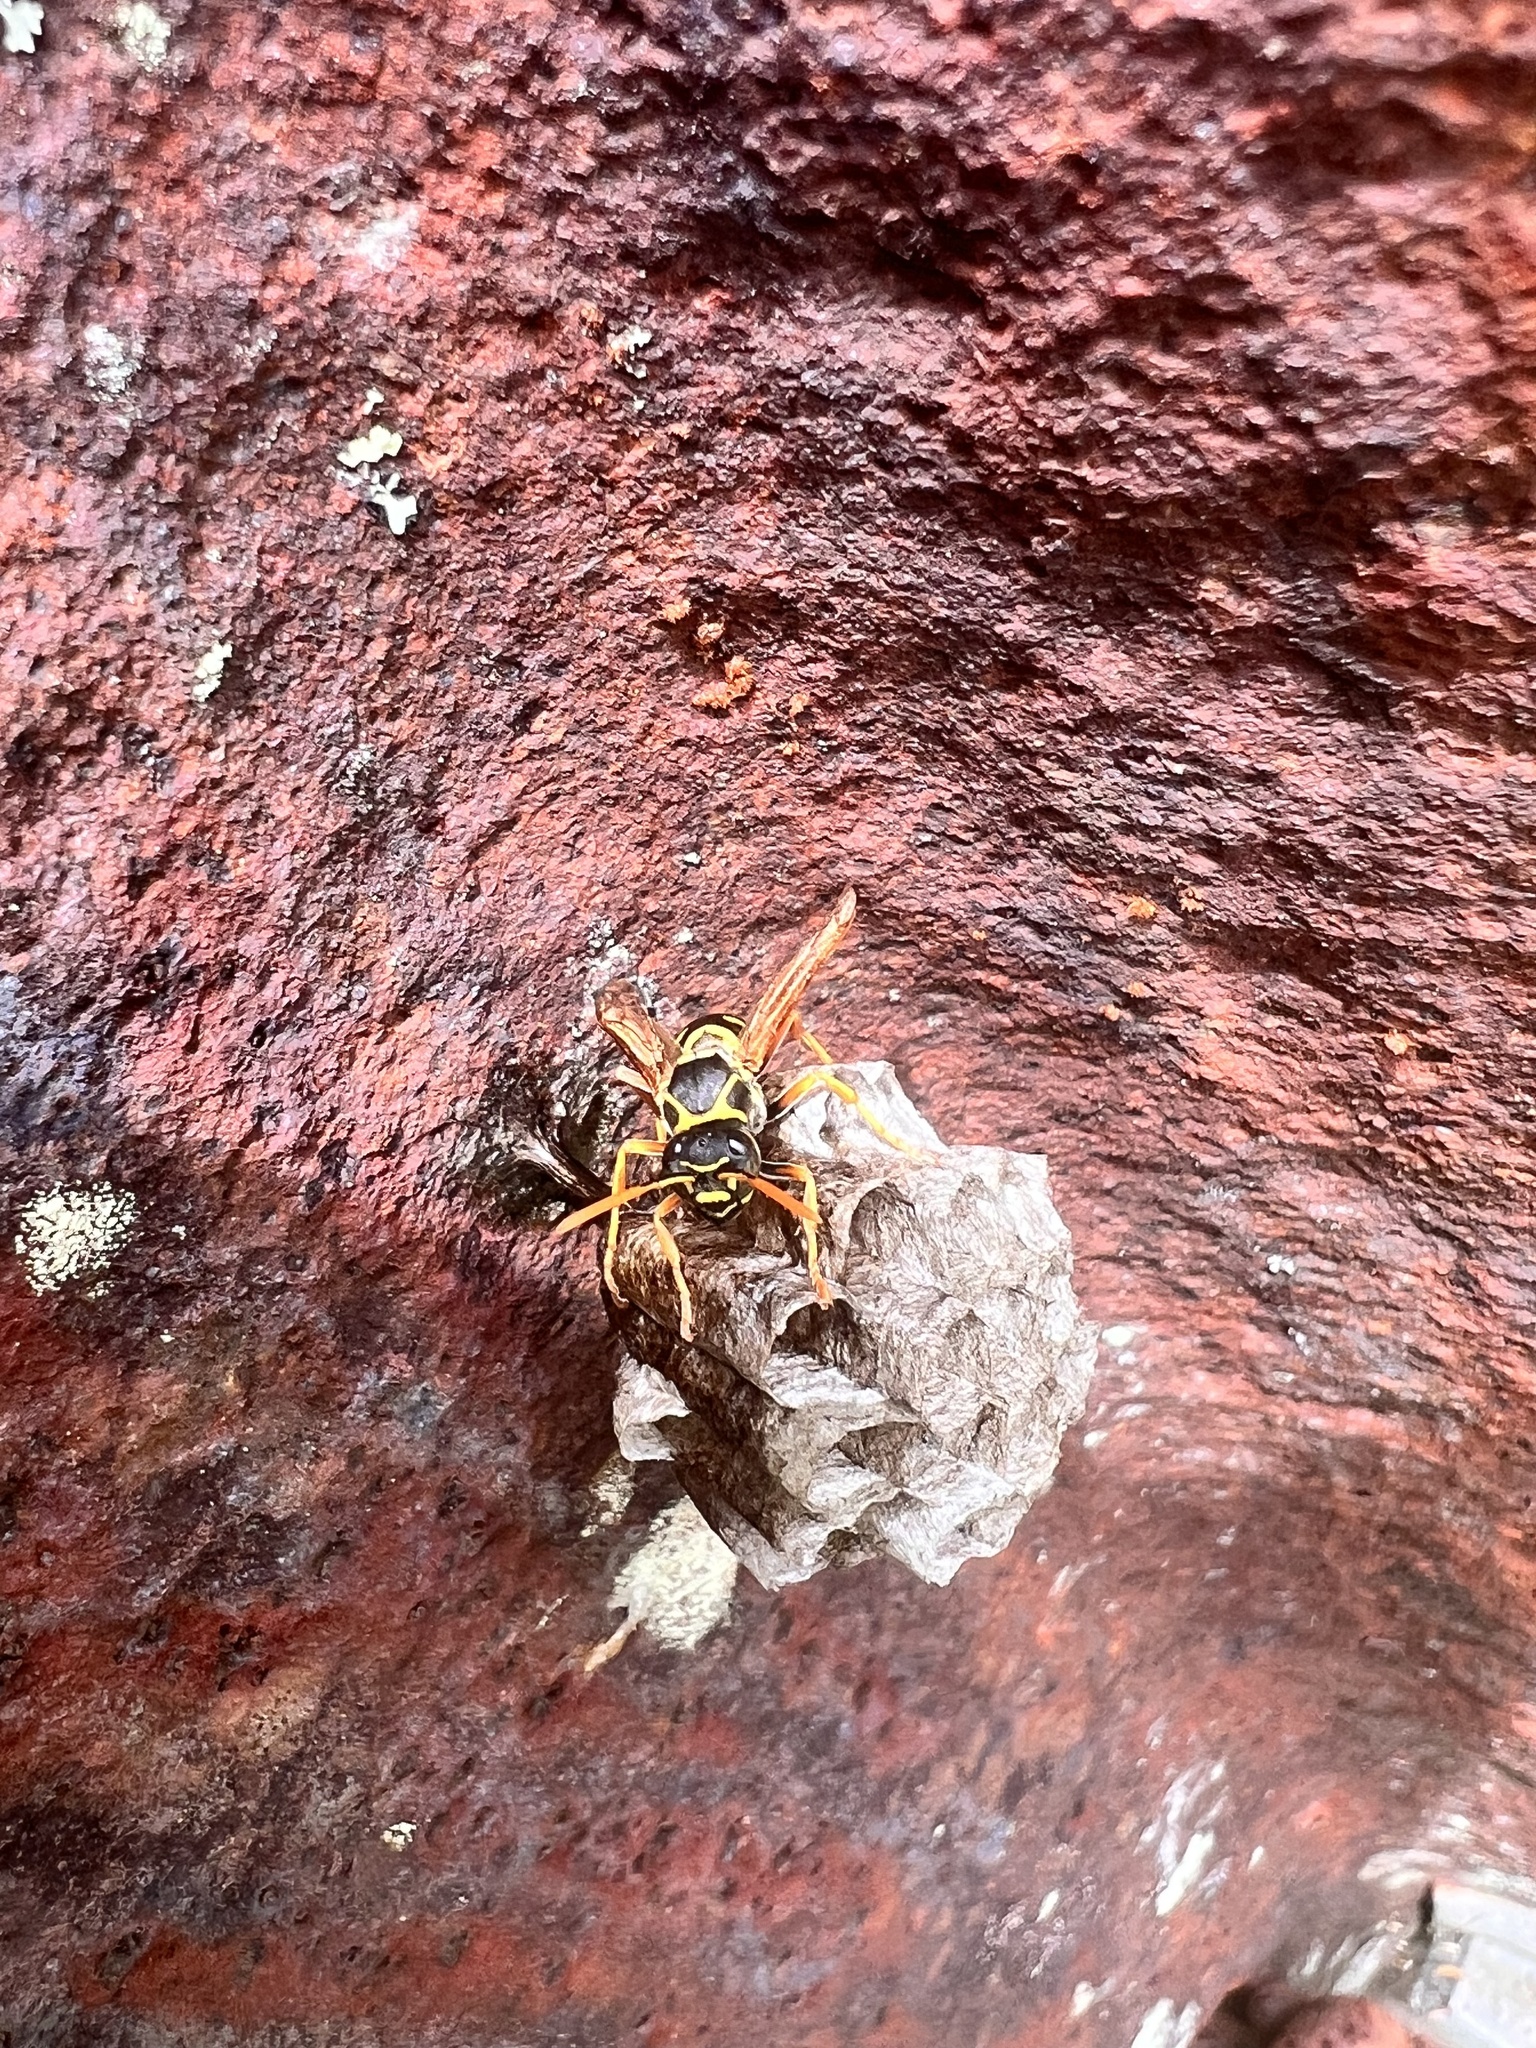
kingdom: Animalia
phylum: Arthropoda
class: Insecta
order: Hymenoptera
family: Eumenidae
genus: Polistes
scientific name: Polistes chinensis
